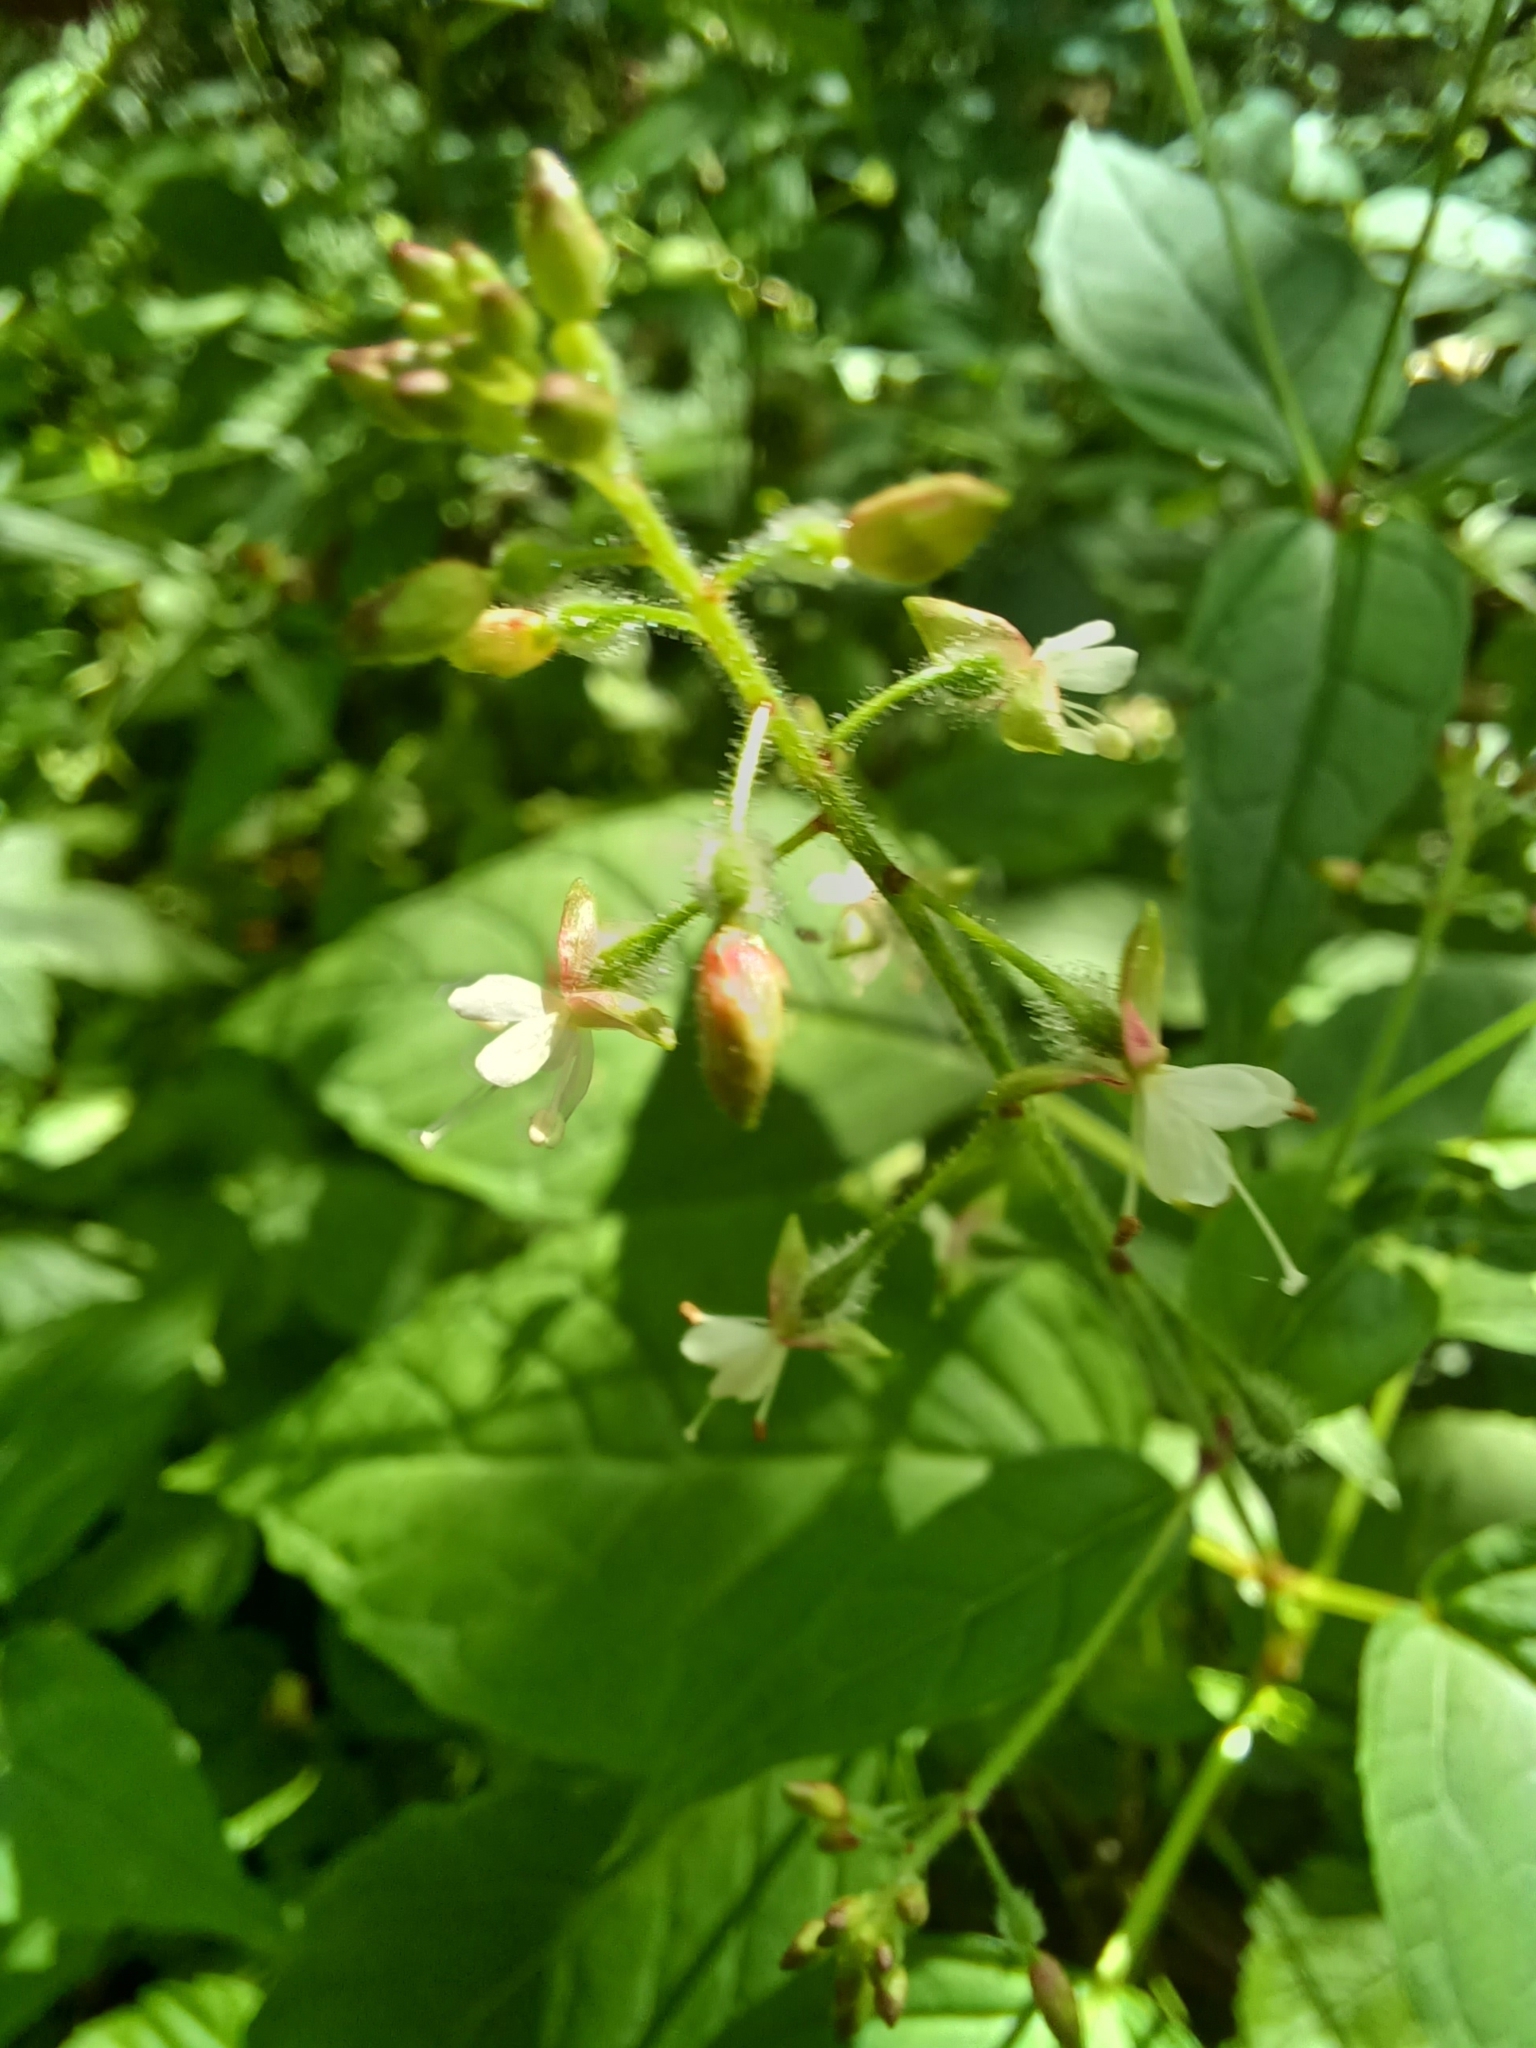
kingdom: Plantae
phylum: Tracheophyta
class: Magnoliopsida
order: Myrtales
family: Onagraceae
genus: Circaea
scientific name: Circaea canadensis
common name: Broad-leaved enchanter's nightshade
